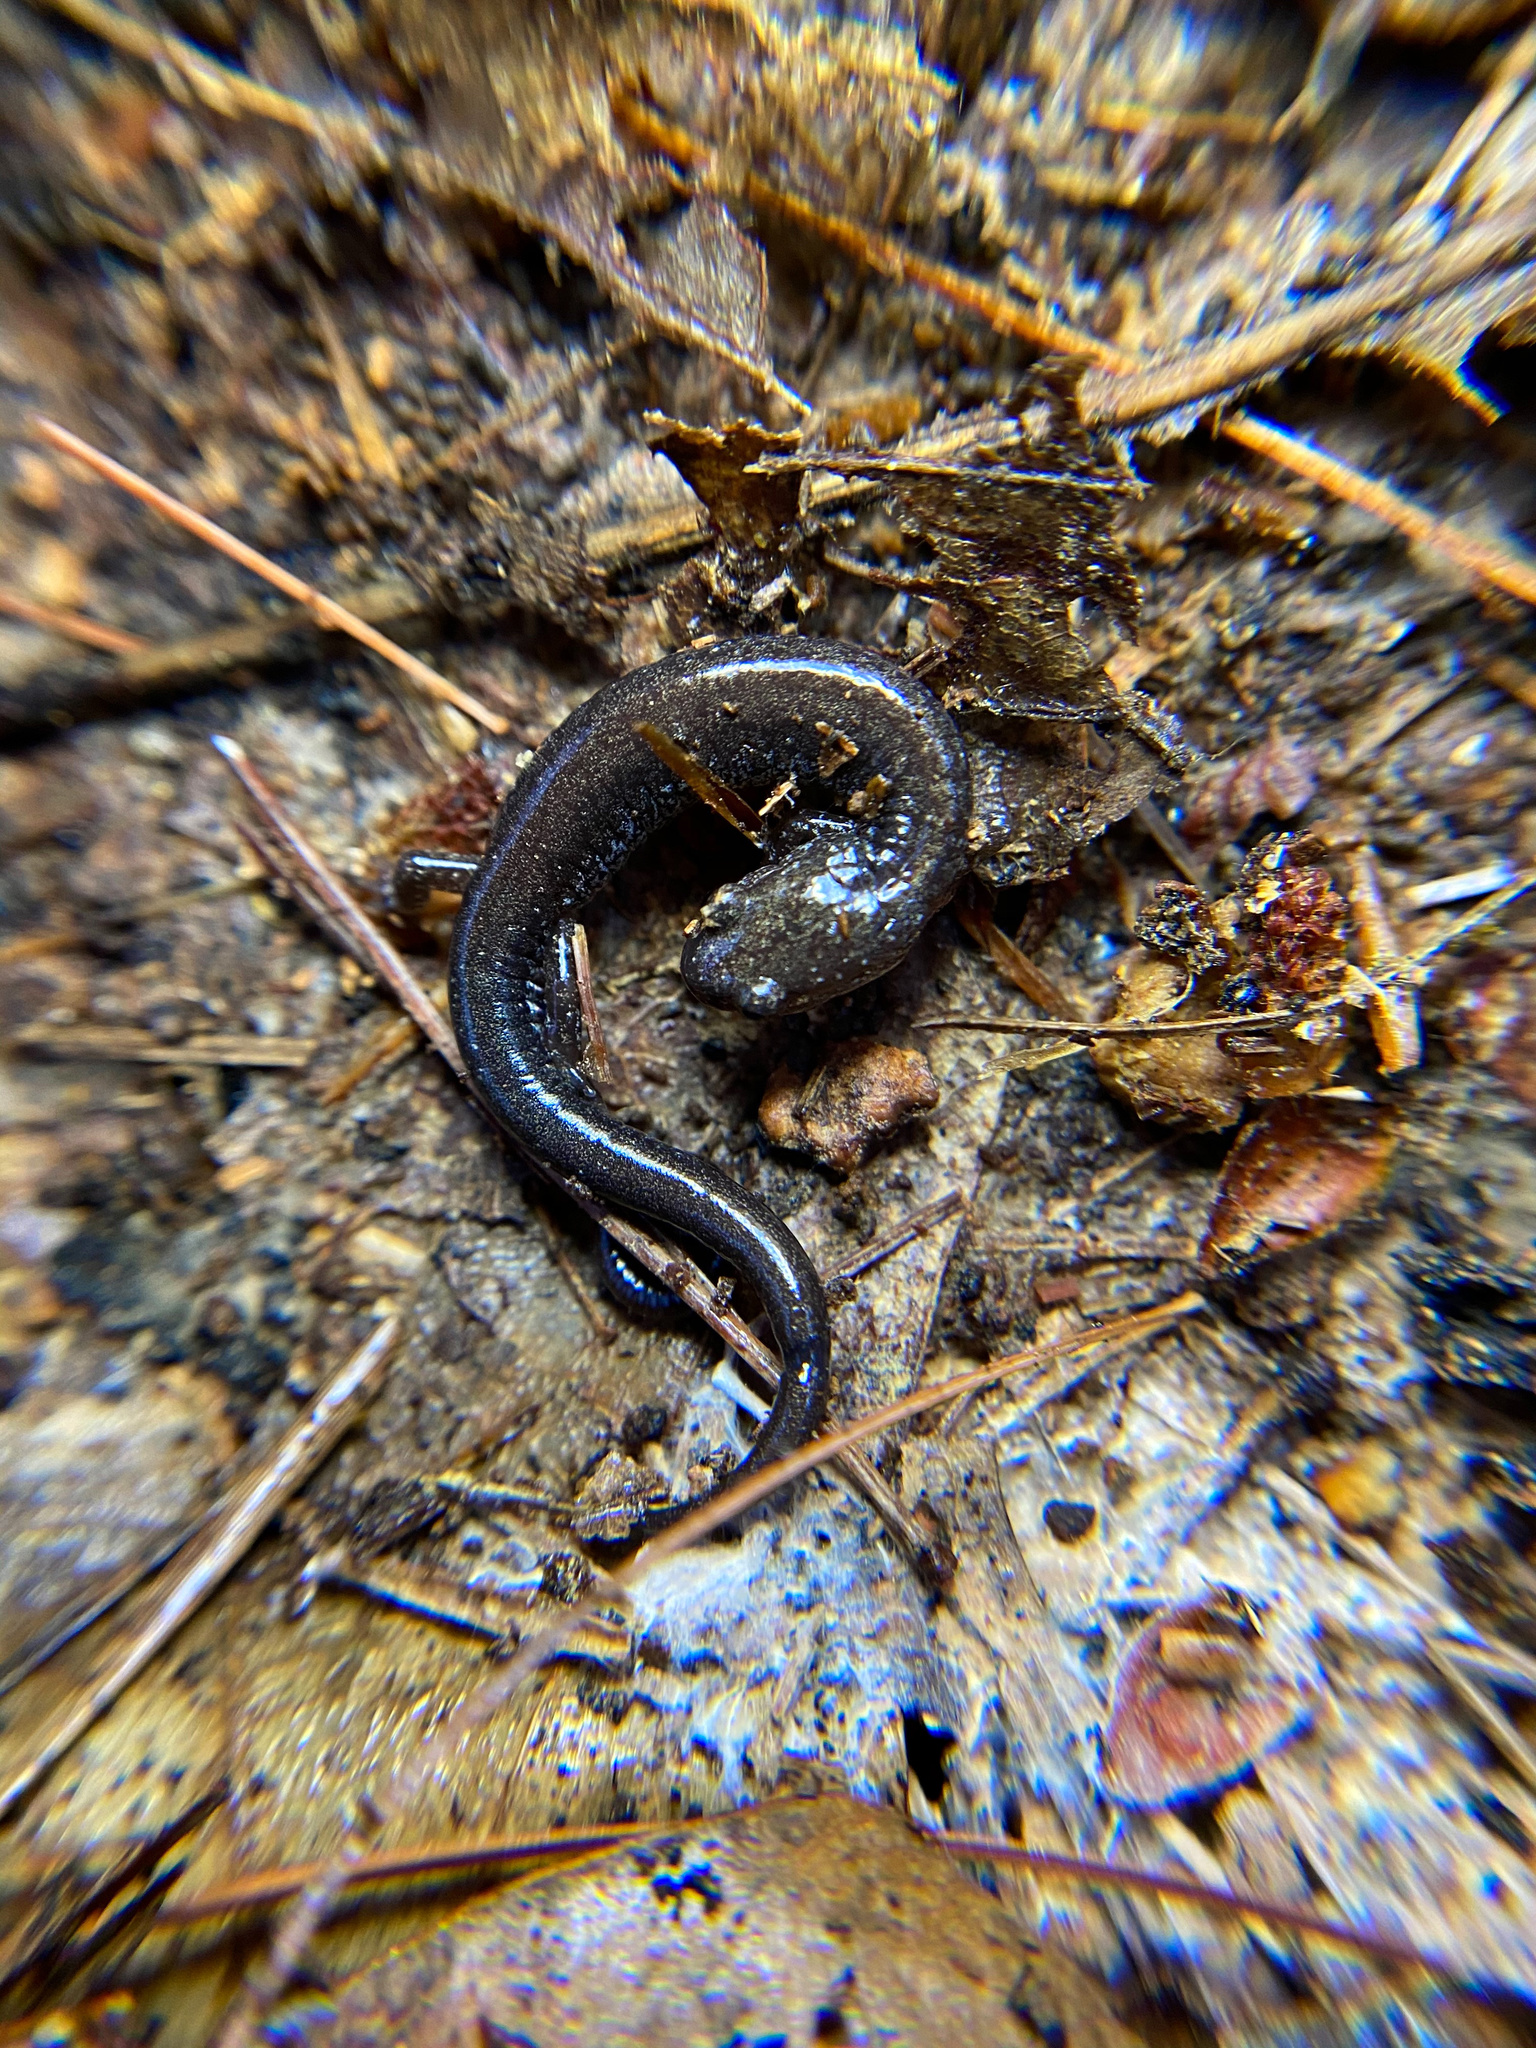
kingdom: Animalia
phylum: Chordata
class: Amphibia
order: Caudata
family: Plethodontidae
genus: Plethodon
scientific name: Plethodon cinereus
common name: Redback salamander
